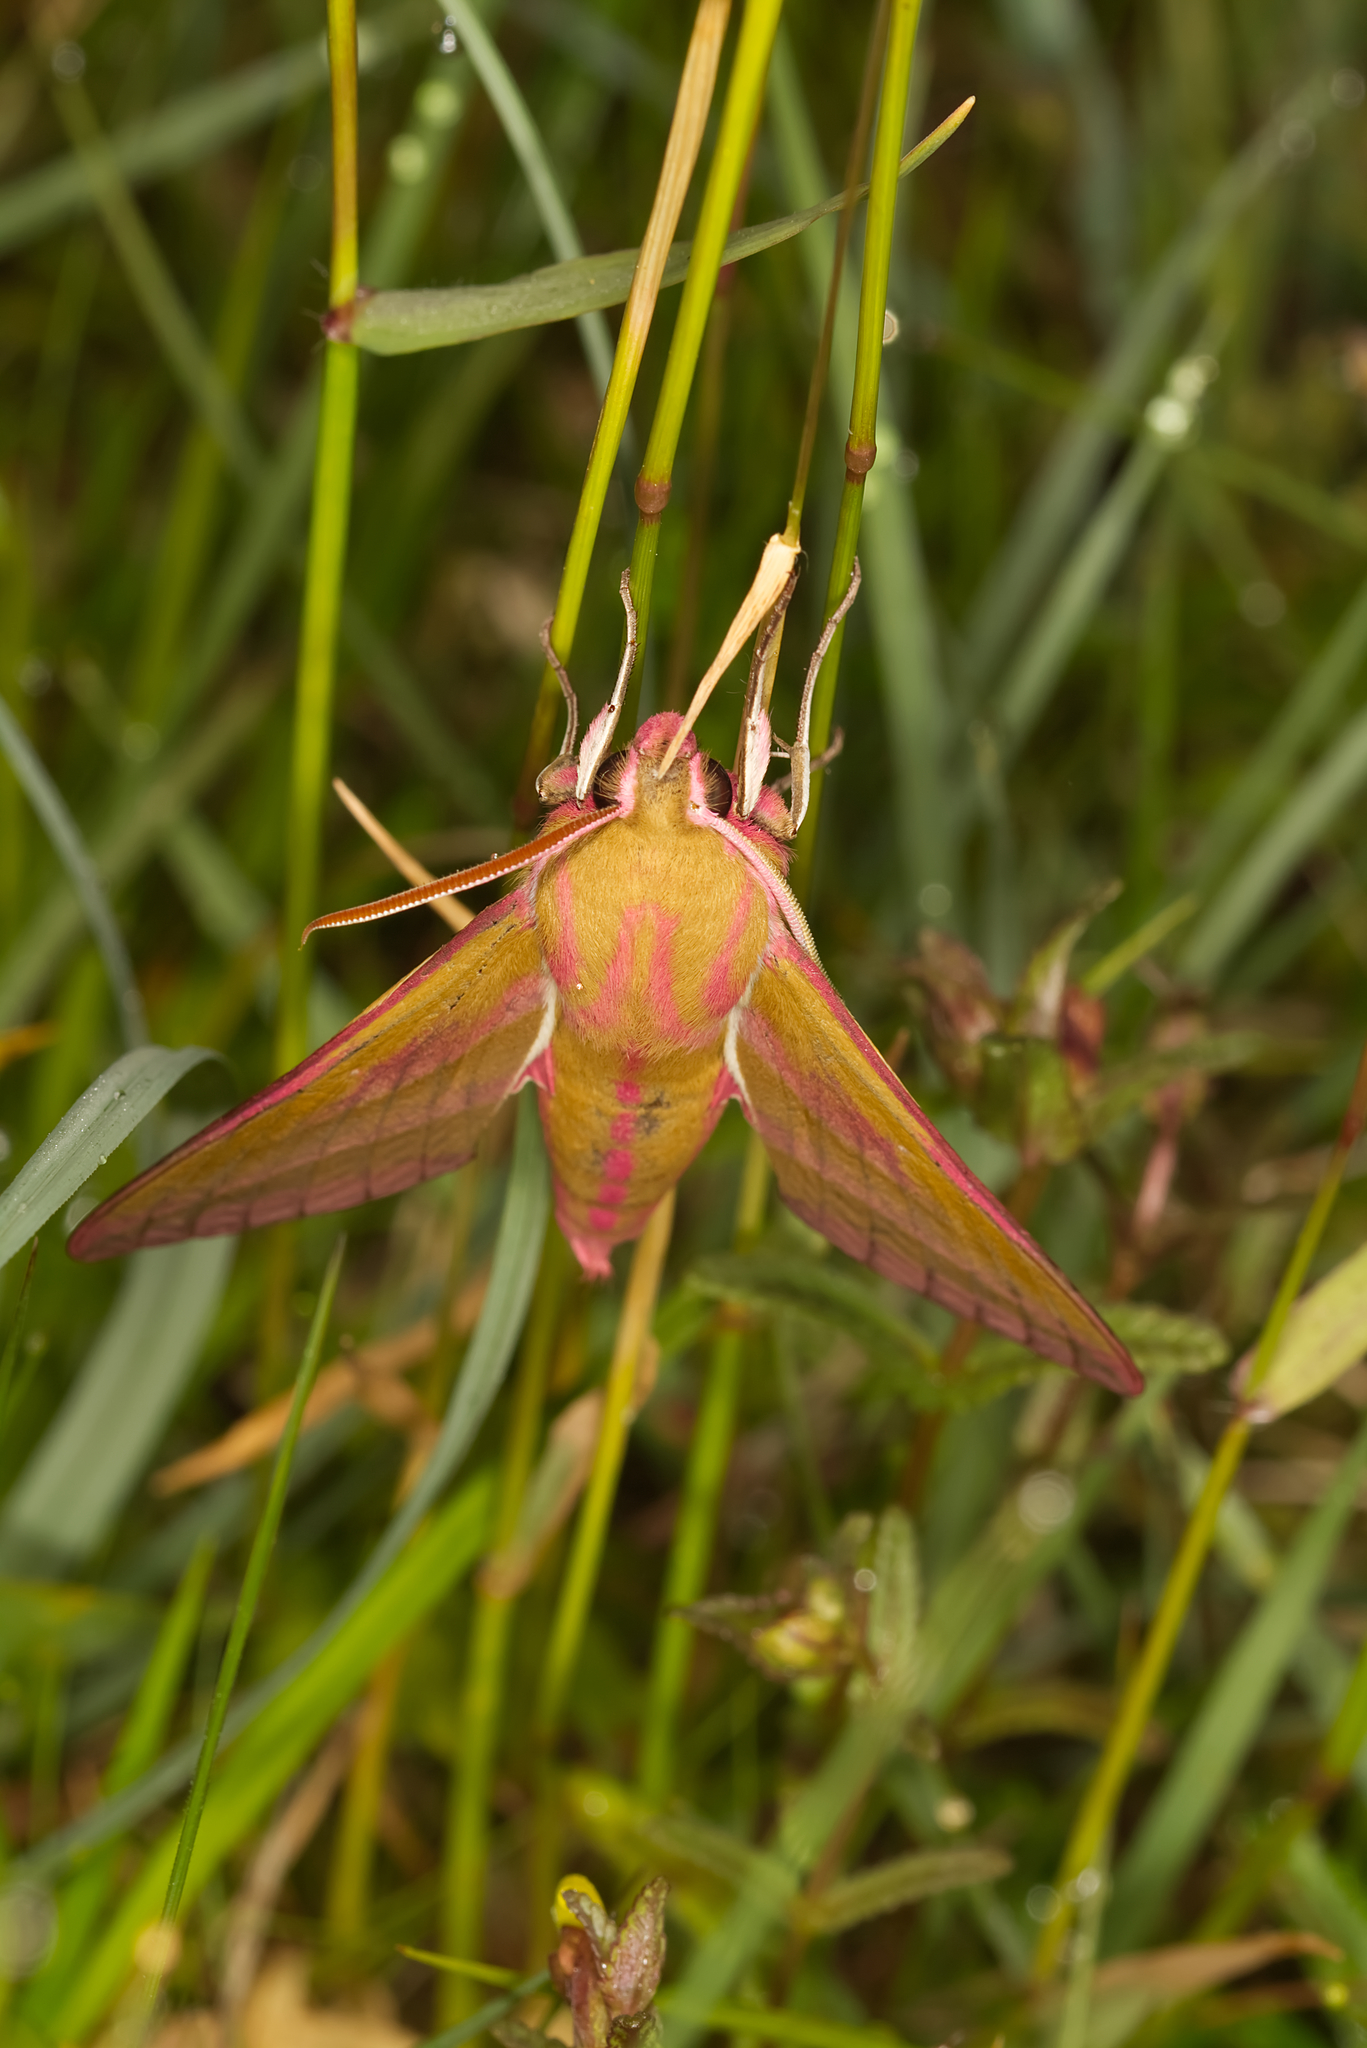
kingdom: Animalia
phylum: Arthropoda
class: Insecta
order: Lepidoptera
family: Sphingidae
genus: Deilephila
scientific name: Deilephila elpenor
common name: Elephant hawk-moth
